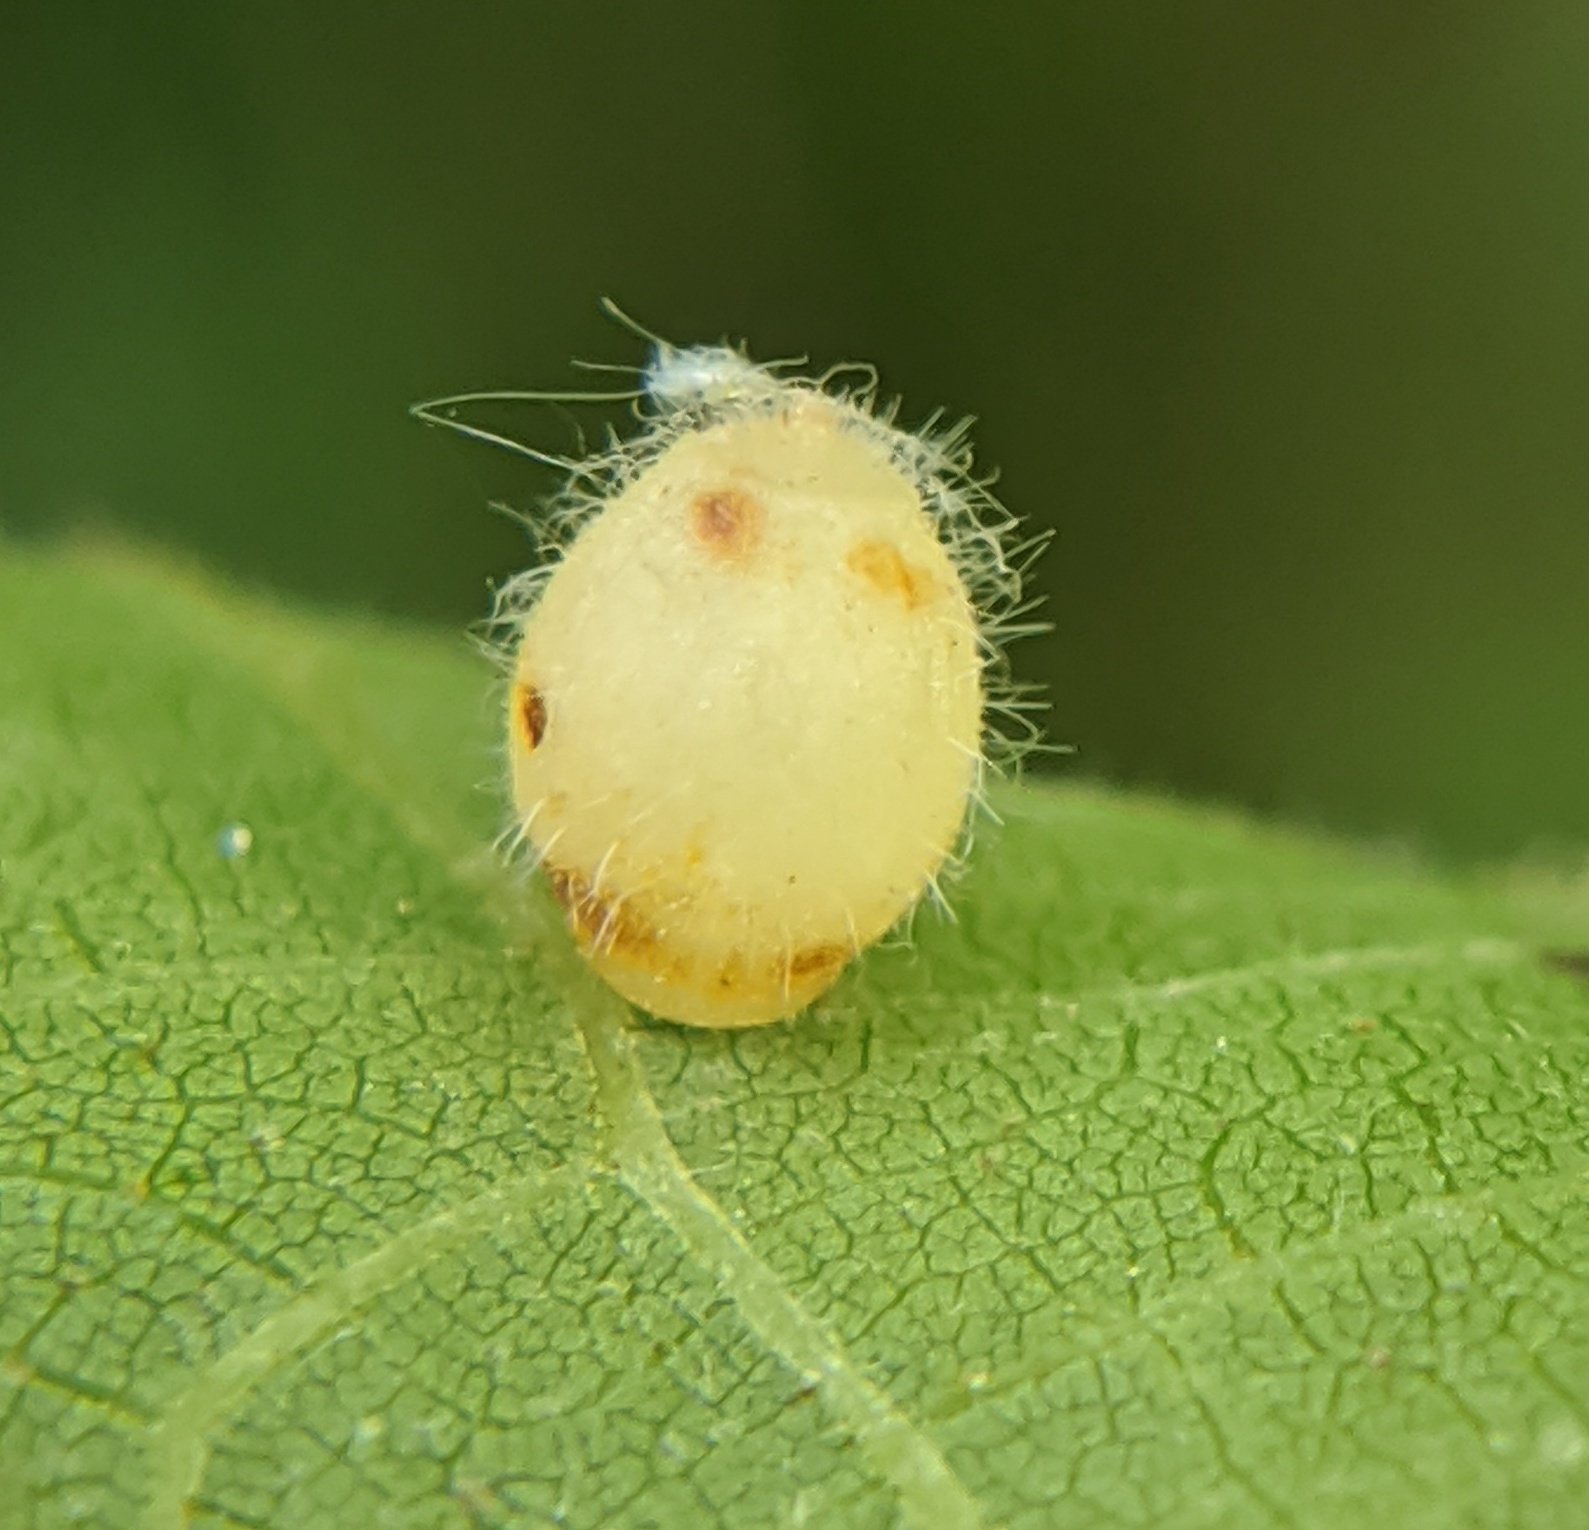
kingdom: Animalia
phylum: Arthropoda
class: Insecta
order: Diptera
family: Cecidomyiidae
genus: Caryomyia
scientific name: Caryomyia cilidolium
